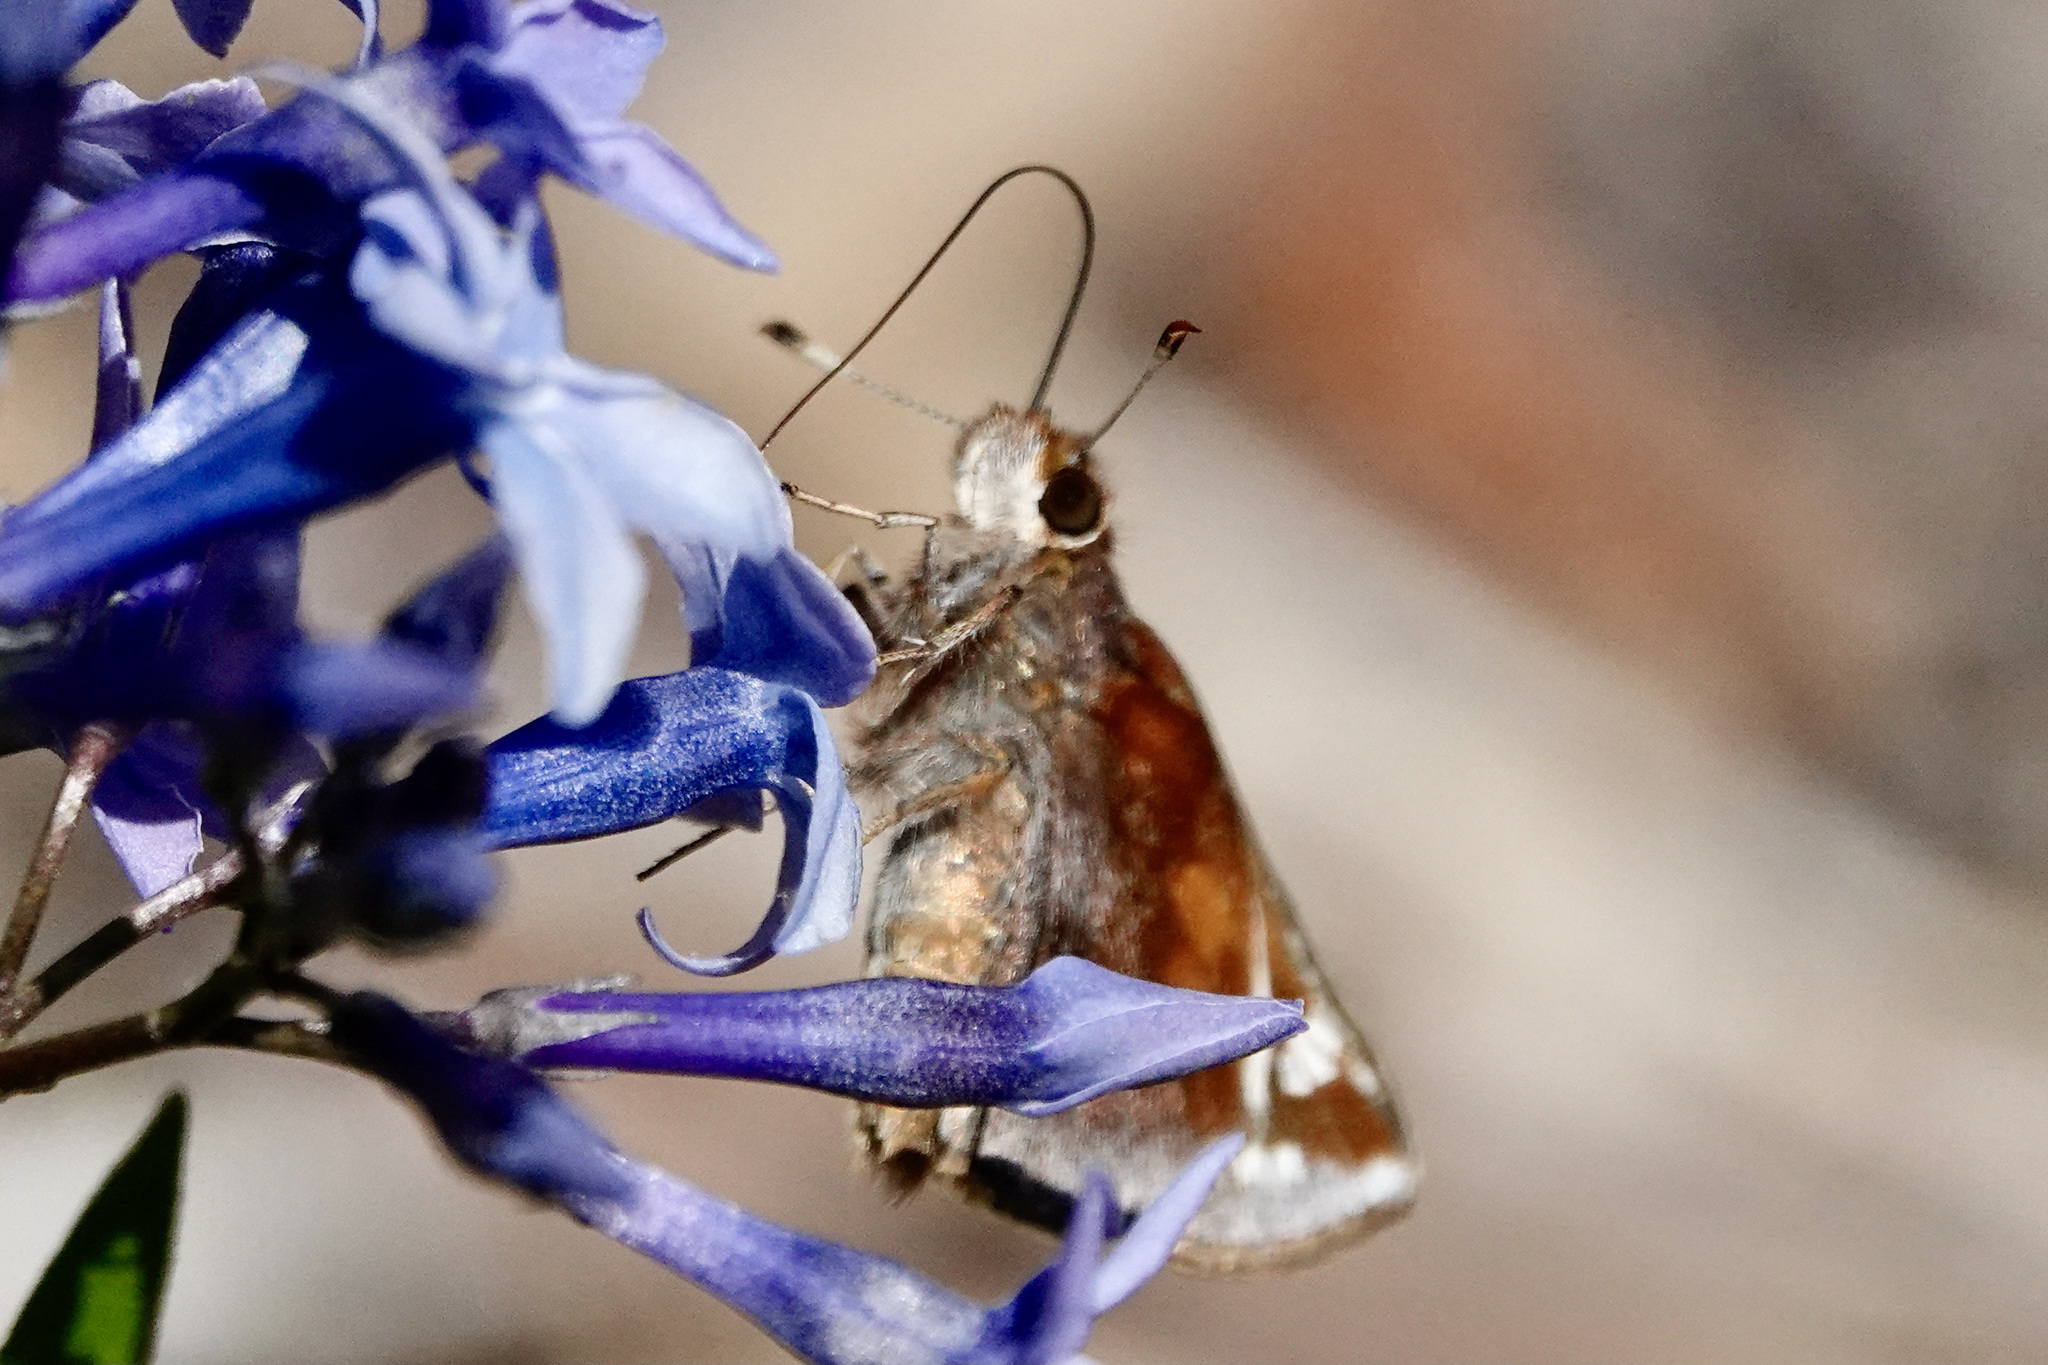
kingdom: Animalia
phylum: Arthropoda
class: Insecta
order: Lepidoptera
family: Hesperiidae
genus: Lon
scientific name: Lon zabulon
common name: Zabulon skipper
